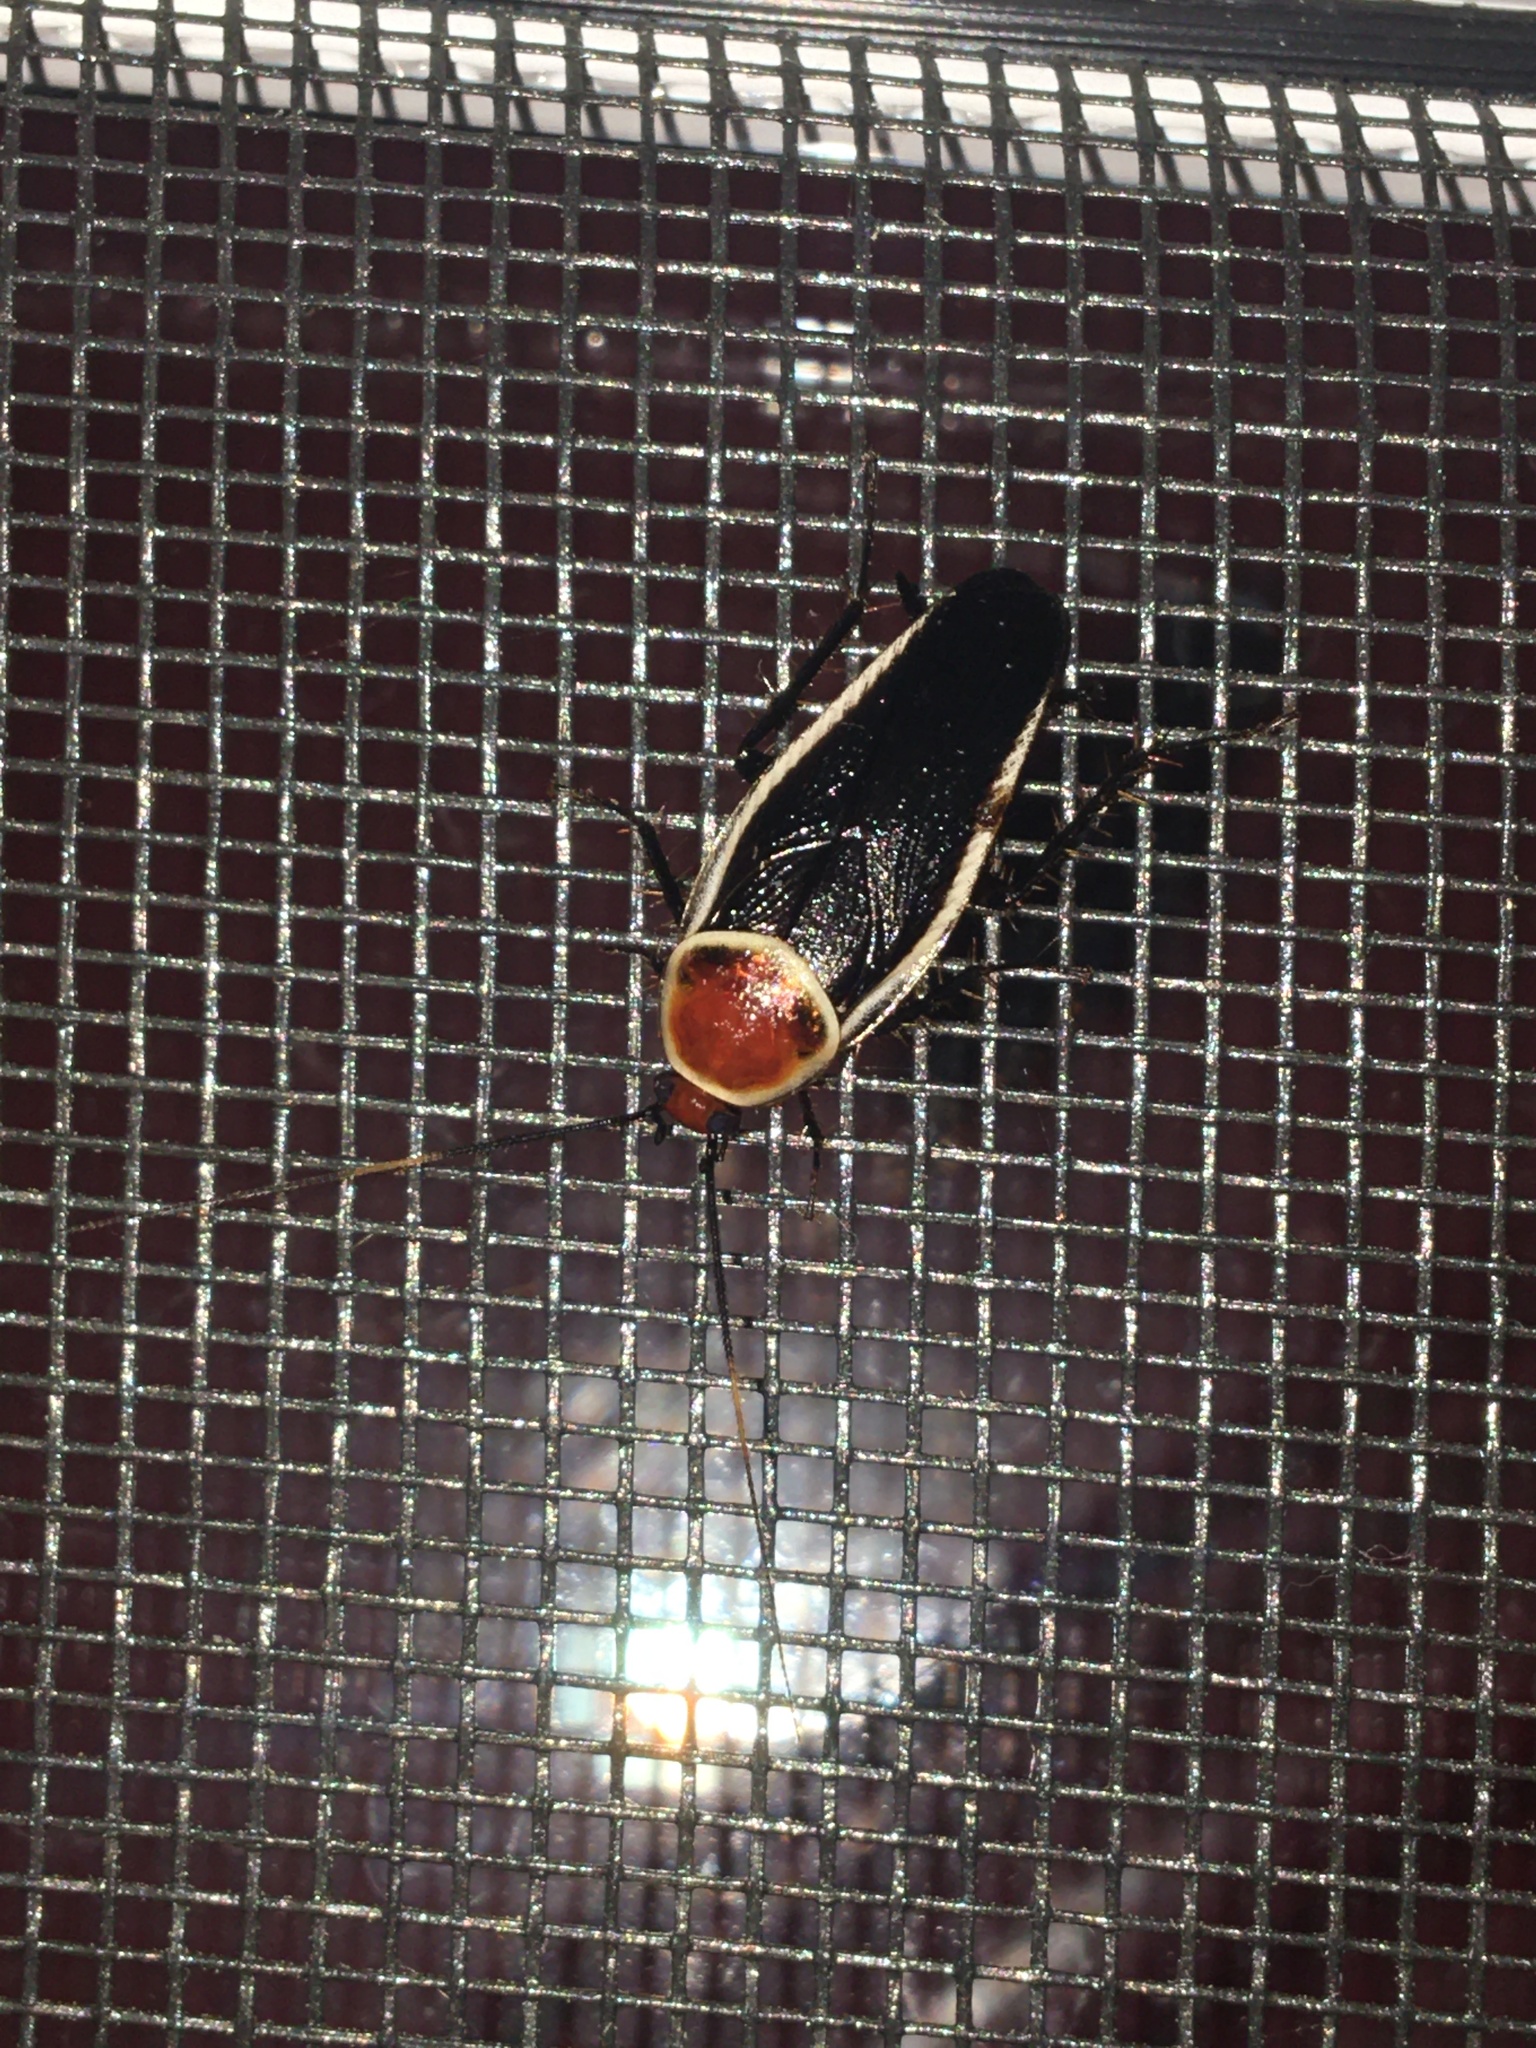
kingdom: Animalia
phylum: Arthropoda
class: Insecta
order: Blattodea
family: Ectobiidae
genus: Pseudomops
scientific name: Pseudomops septentrionalis
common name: Pale-bordered field cockroach
